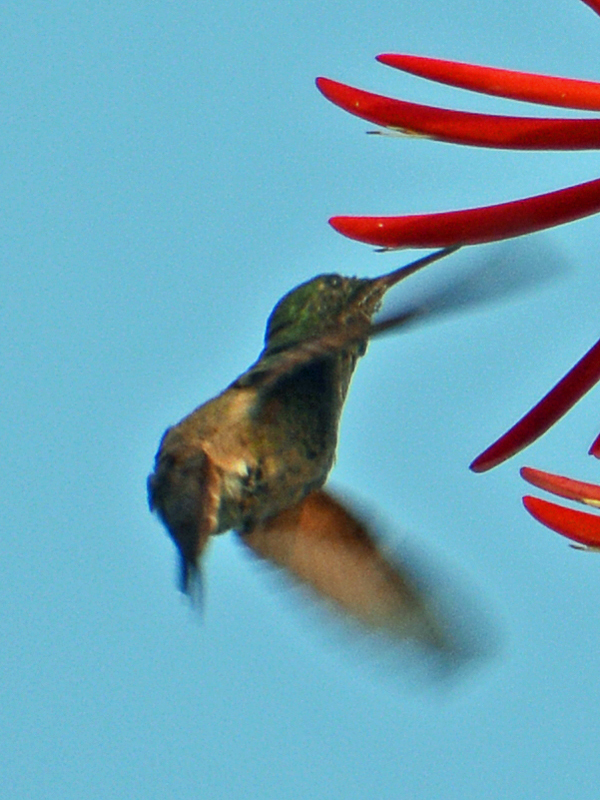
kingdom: Animalia
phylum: Chordata
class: Aves
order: Apodiformes
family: Trochilidae
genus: Saucerottia
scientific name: Saucerottia beryllina
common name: Berylline hummingbird
